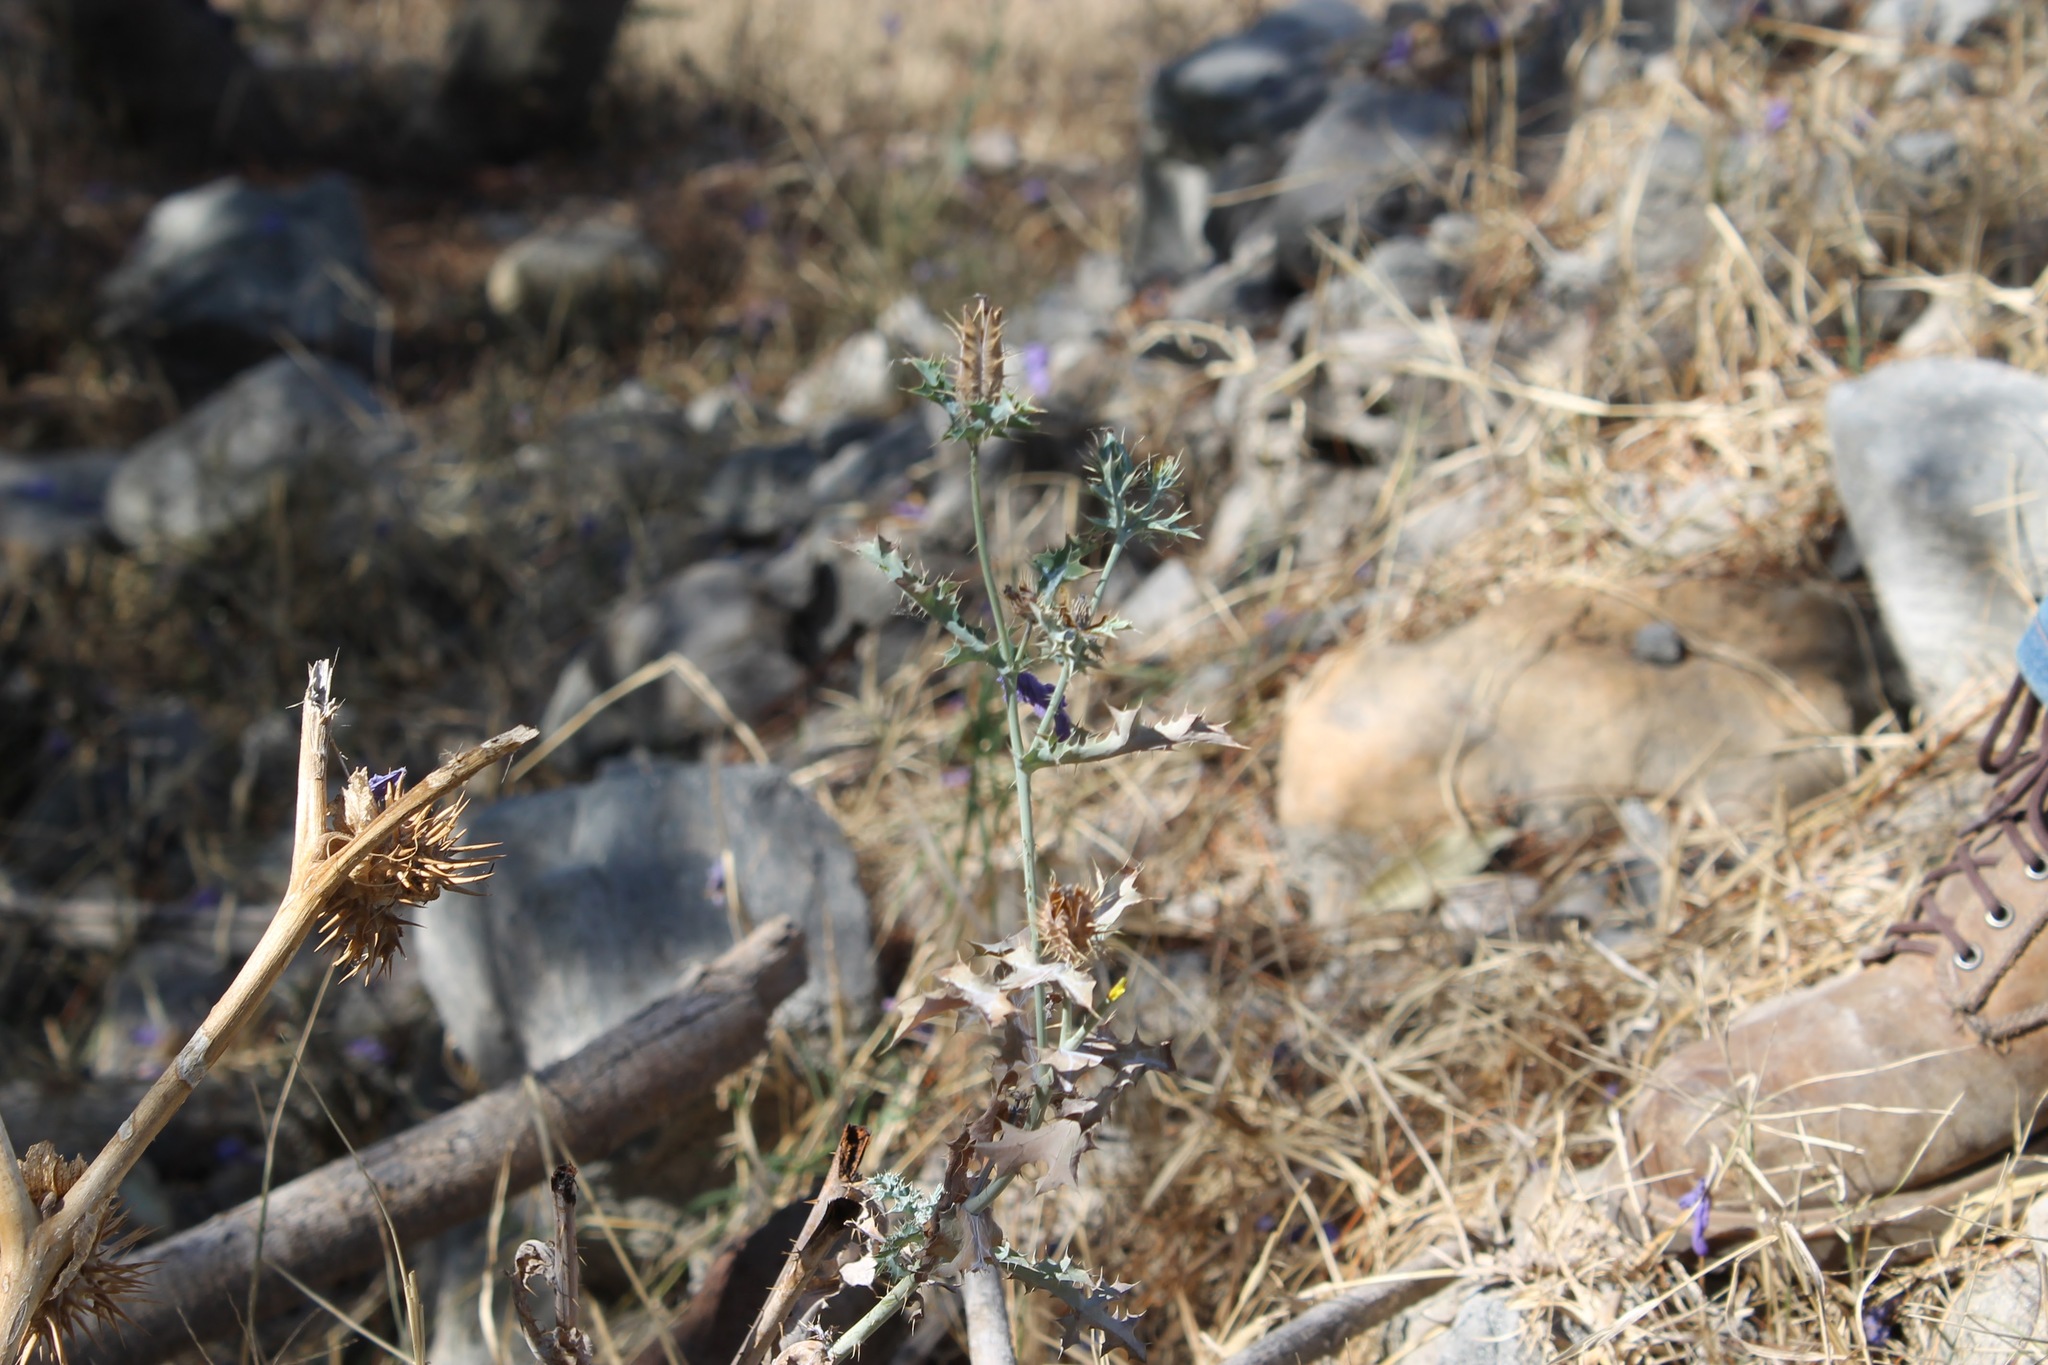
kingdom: Plantae
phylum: Tracheophyta
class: Magnoliopsida
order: Ranunculales
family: Papaveraceae
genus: Argemone
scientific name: Argemone ochroleuca
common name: White-flower mexican-poppy
